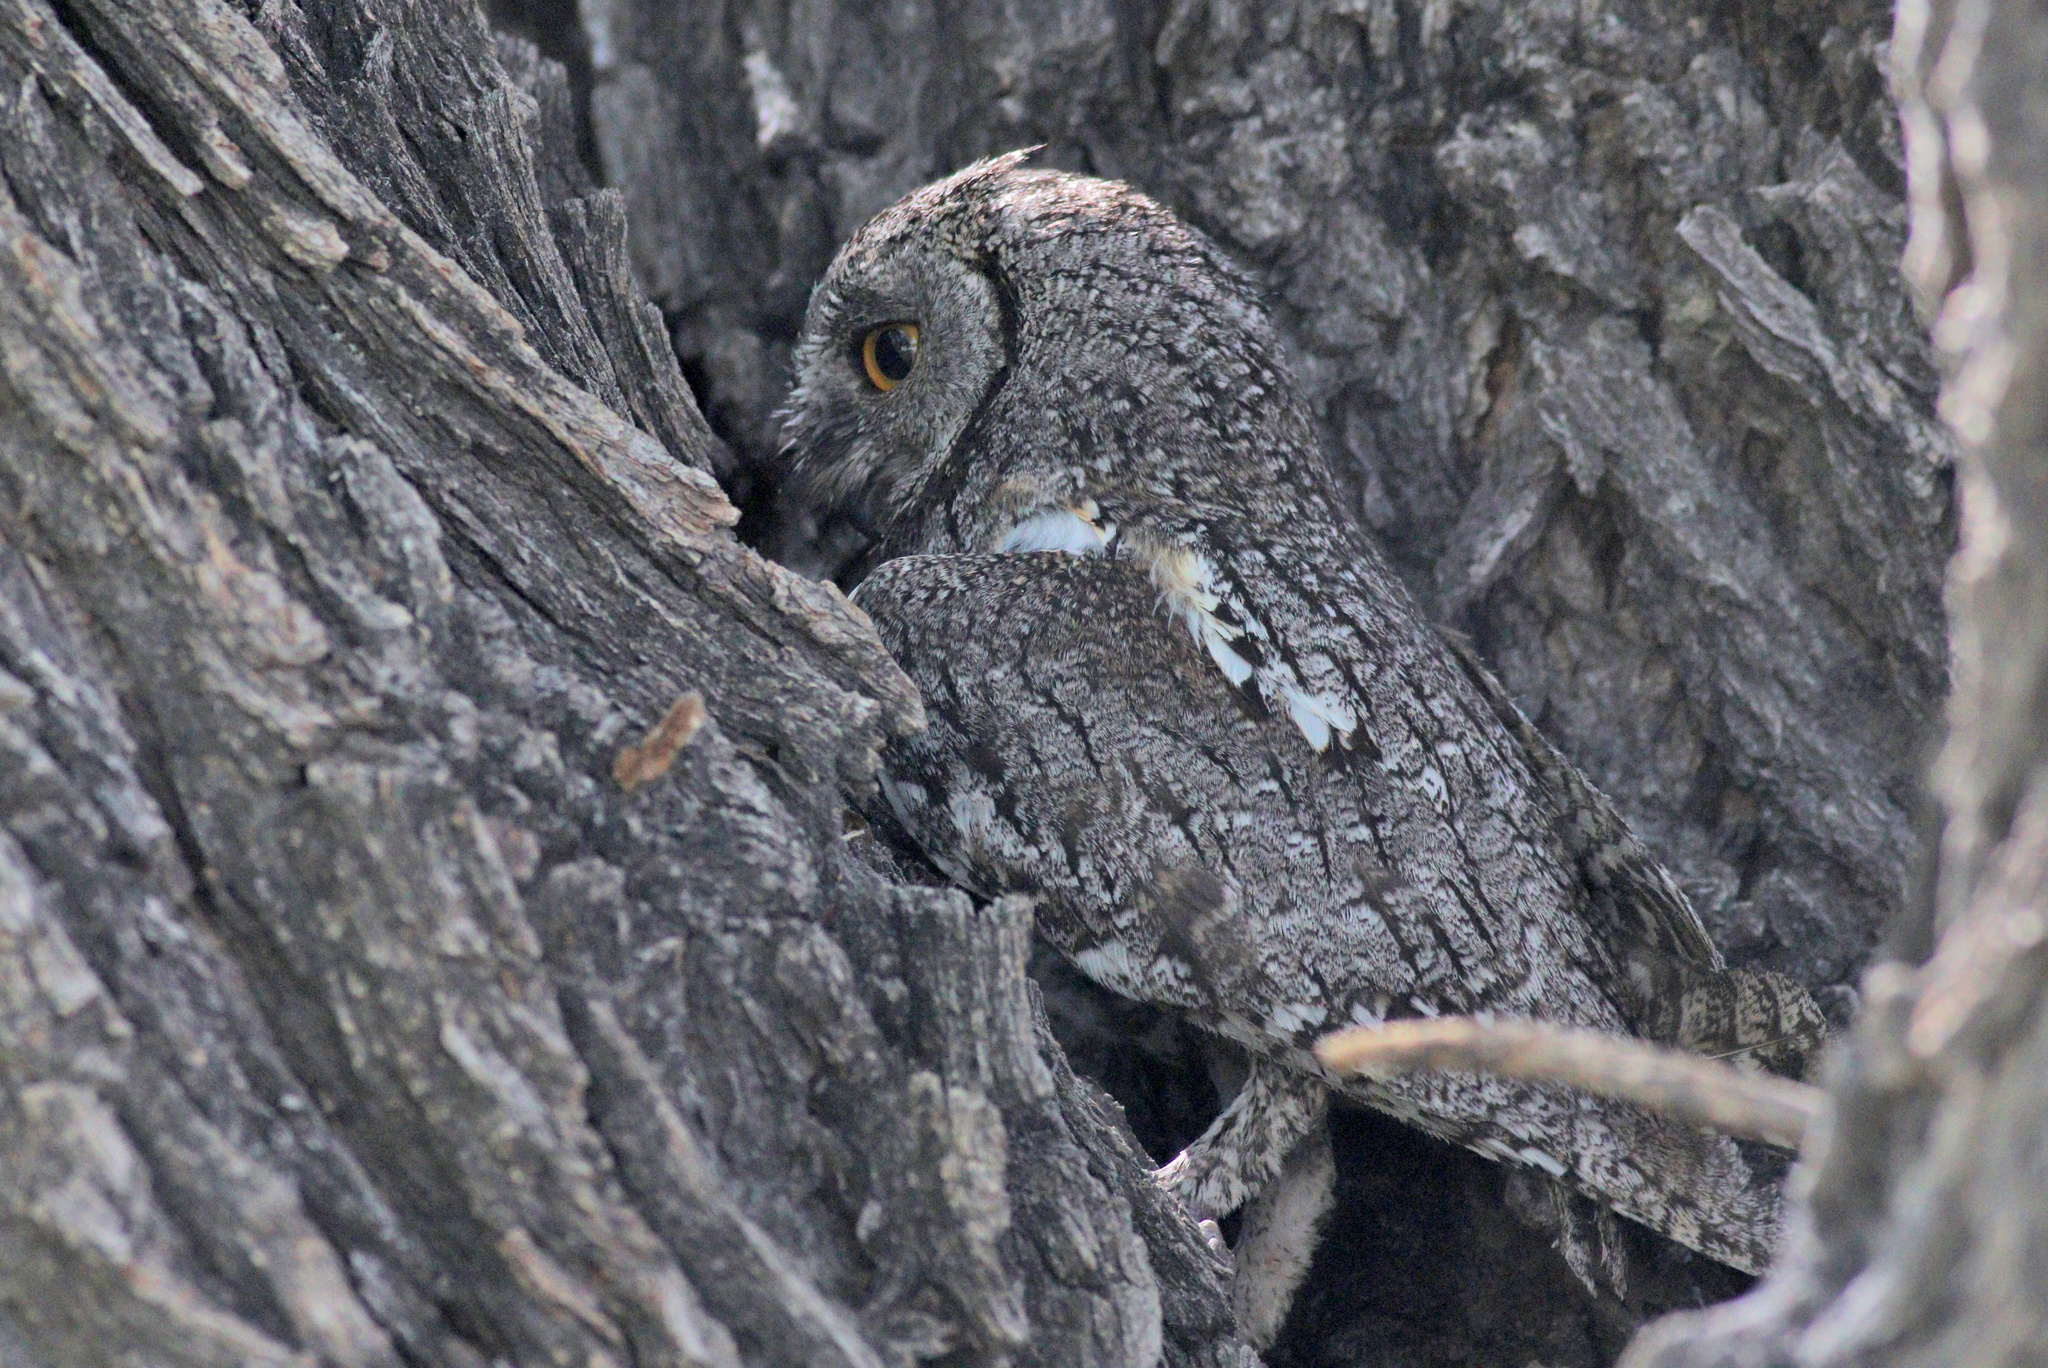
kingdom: Animalia
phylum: Chordata
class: Aves
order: Strigiformes
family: Strigidae
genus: Otus
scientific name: Otus senegalensis
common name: African scops owl
